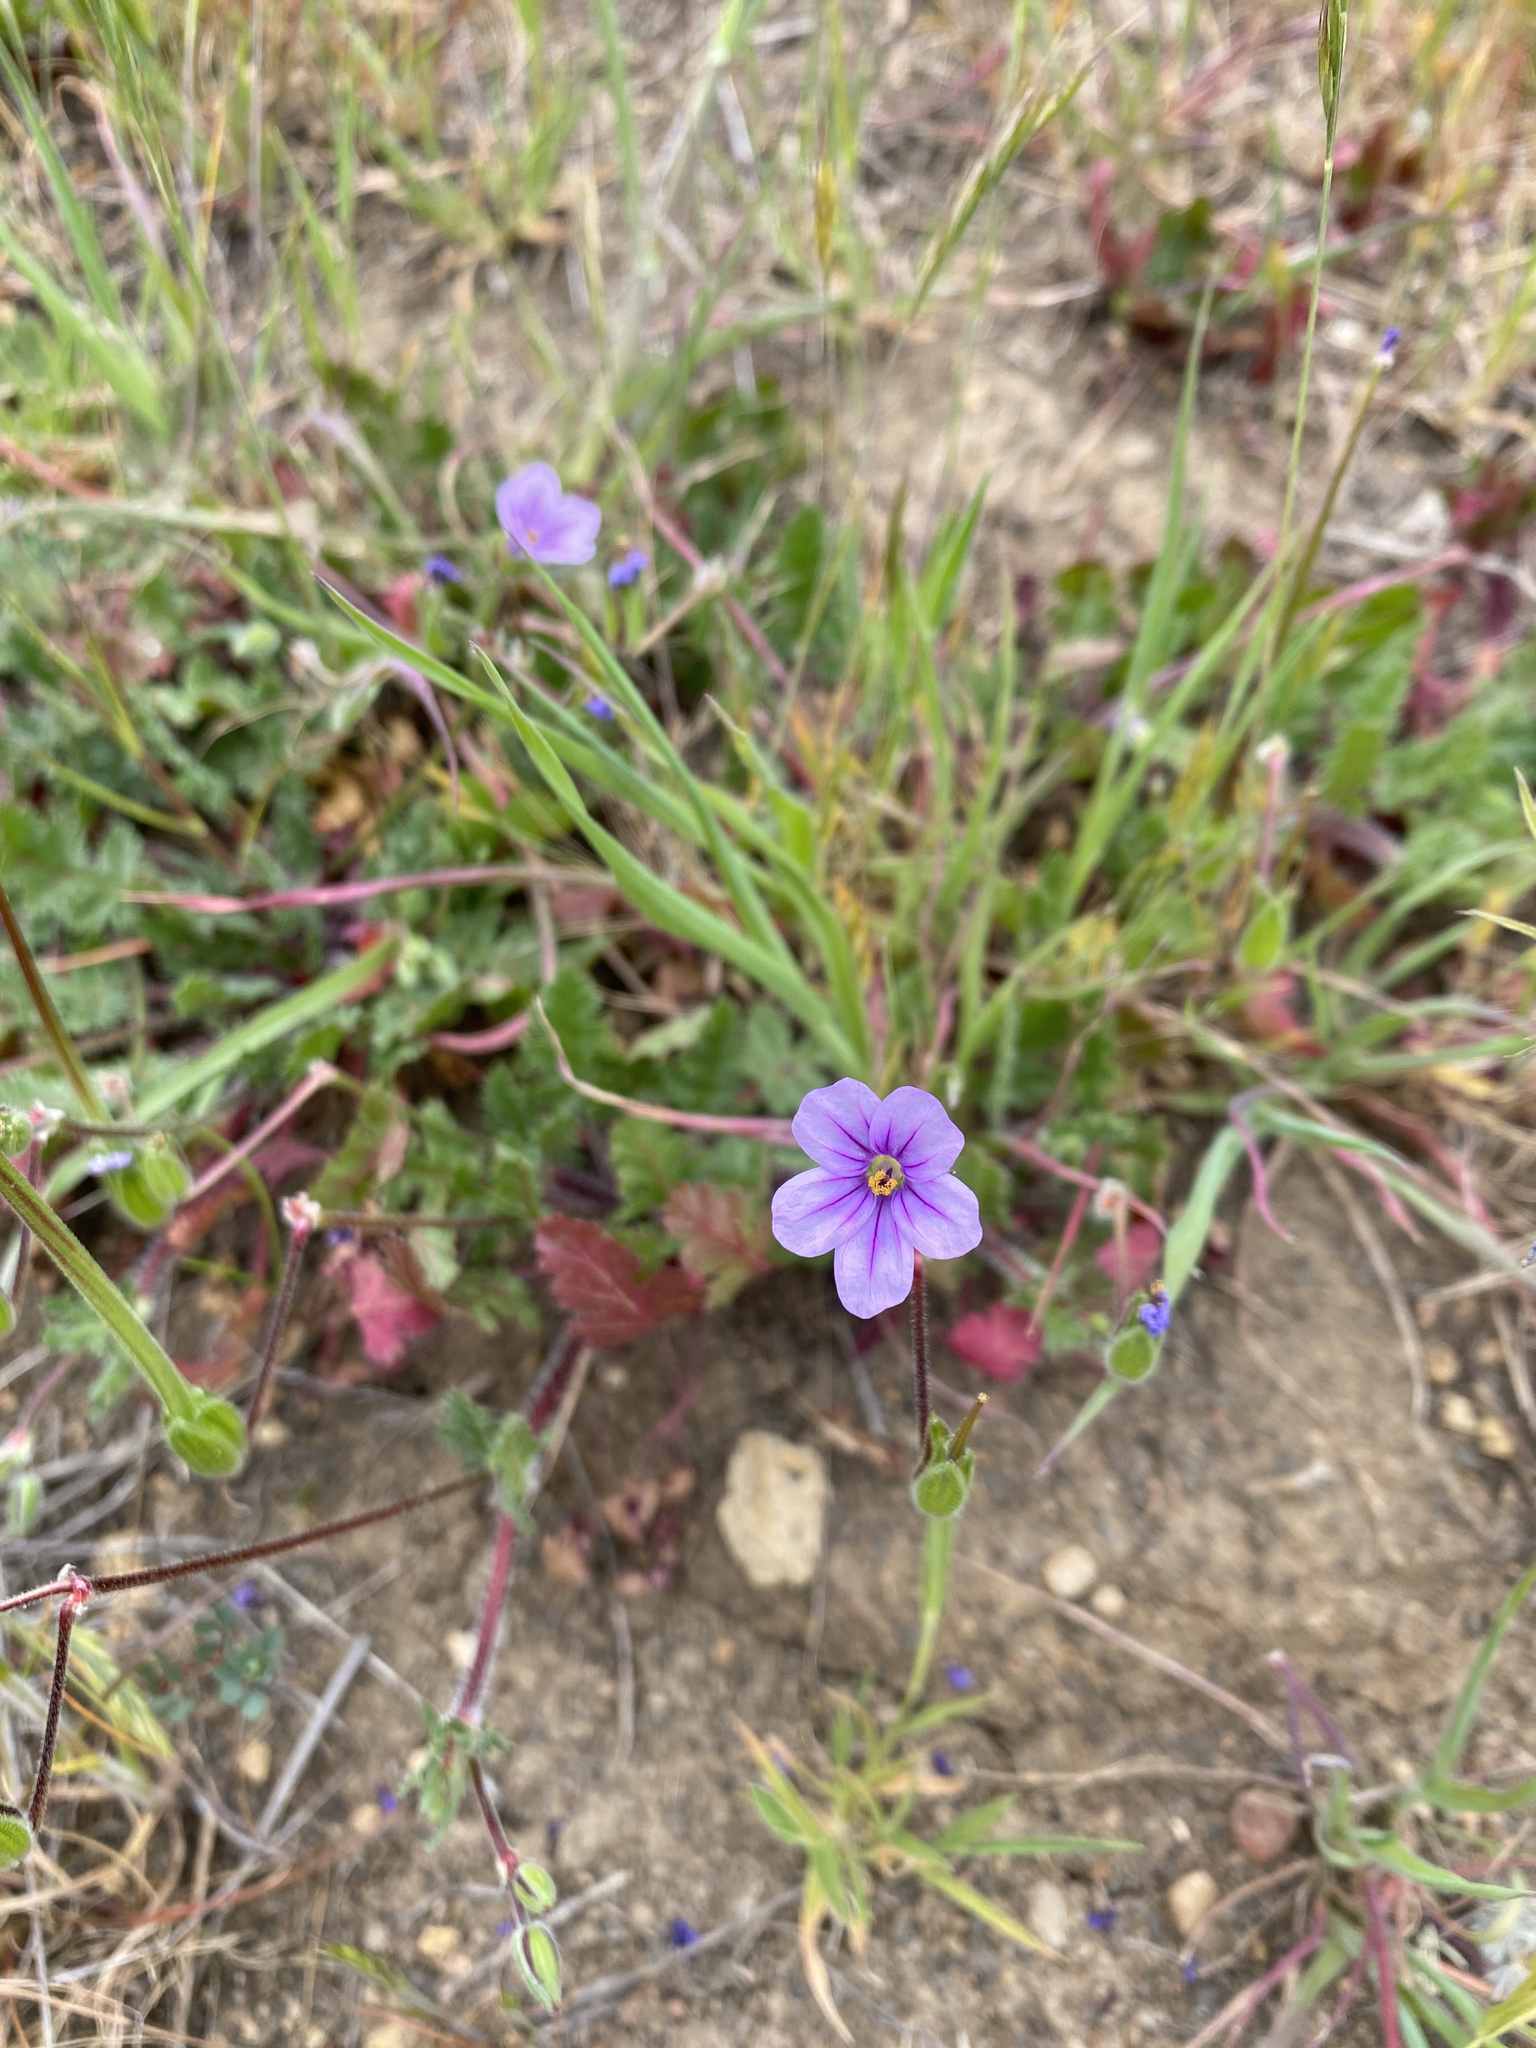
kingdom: Plantae
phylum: Tracheophyta
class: Magnoliopsida
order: Geraniales
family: Geraniaceae
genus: Erodium
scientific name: Erodium botrys
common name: Mediterranean stork's-bill
